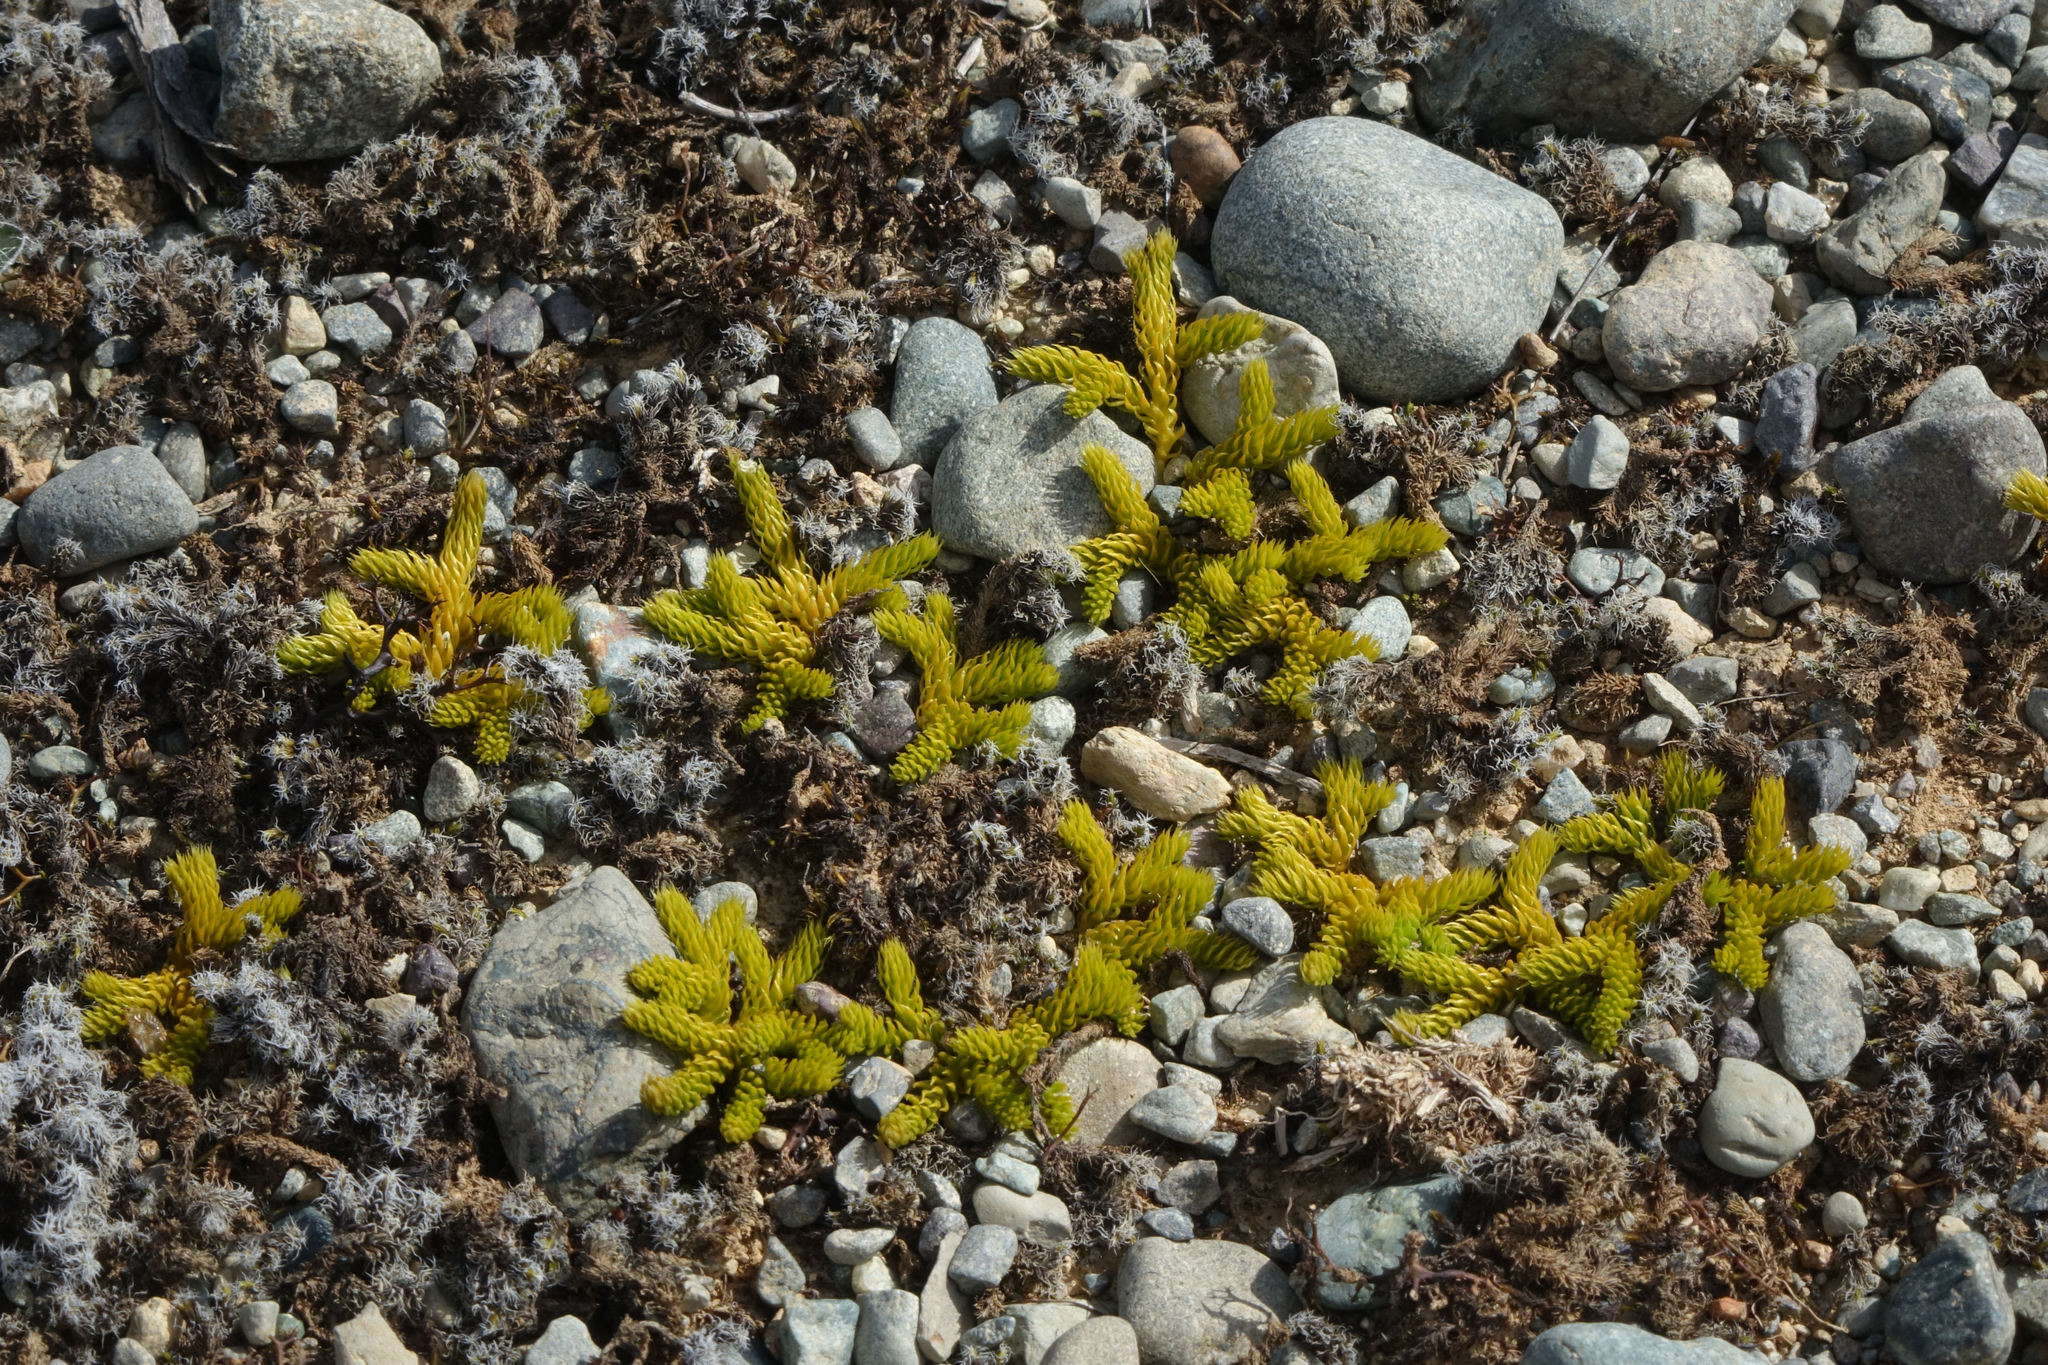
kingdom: Plantae
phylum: Tracheophyta
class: Lycopodiopsida
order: Lycopodiales
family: Lycopodiaceae
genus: Austrolycopodium
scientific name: Austrolycopodium fastigiatum
